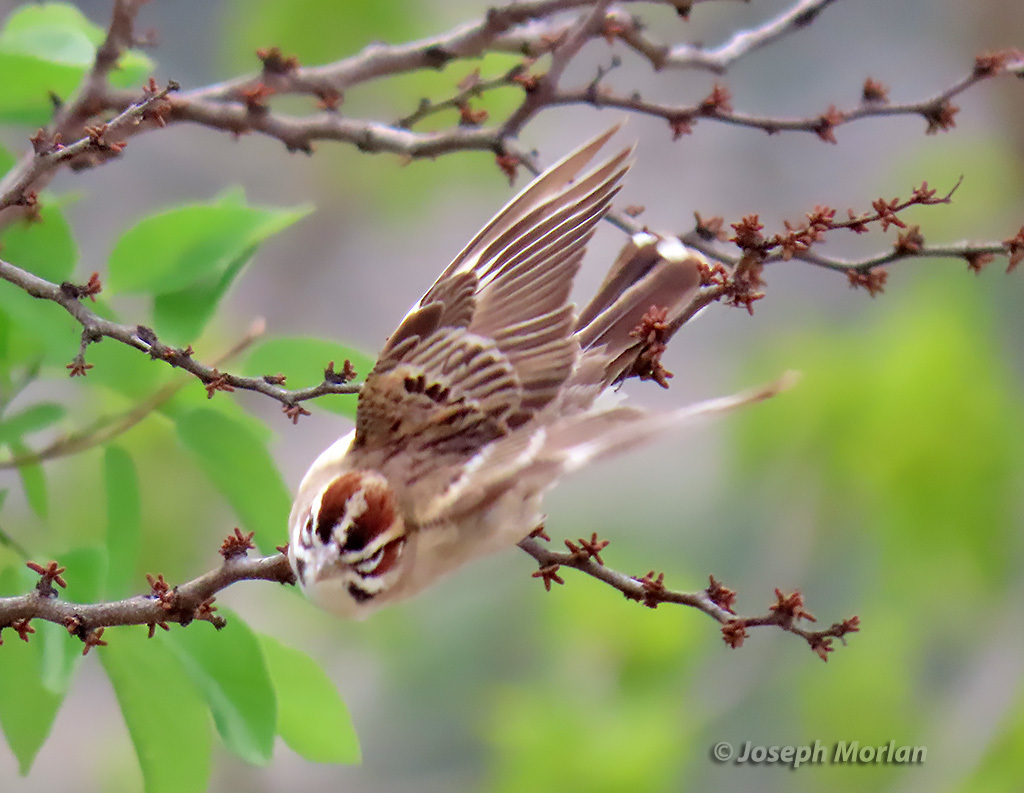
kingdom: Animalia
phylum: Chordata
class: Aves
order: Passeriformes
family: Passerellidae
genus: Chondestes
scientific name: Chondestes grammacus
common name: Lark sparrow
